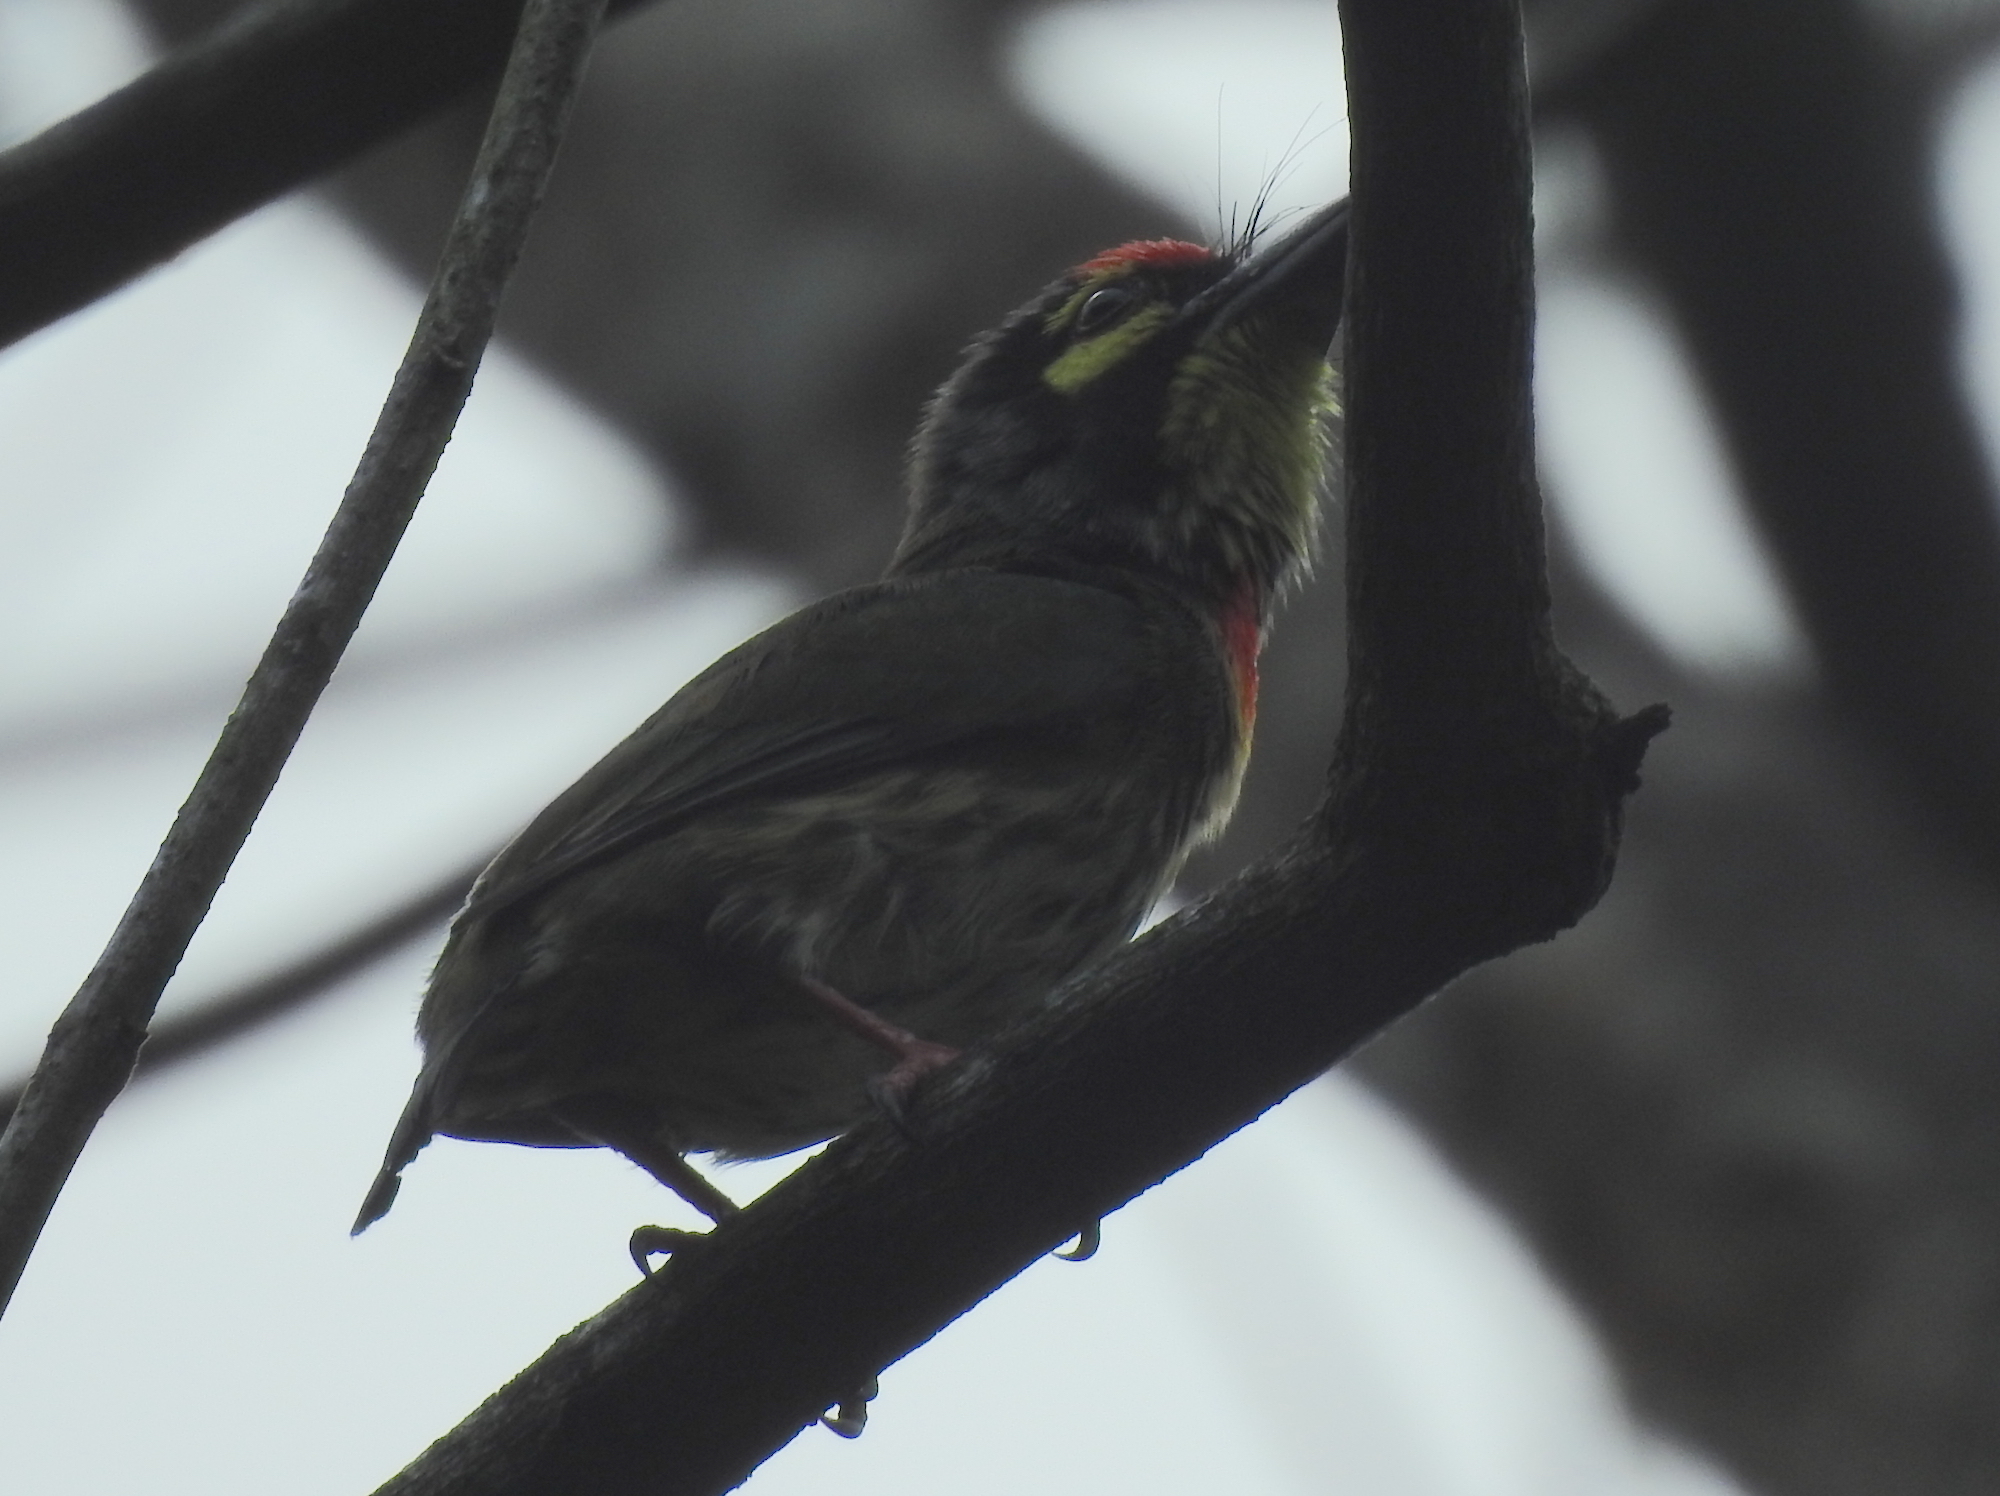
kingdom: Animalia
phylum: Chordata
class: Aves
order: Piciformes
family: Megalaimidae
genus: Psilopogon
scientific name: Psilopogon haemacephalus
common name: Coppersmith barbet
